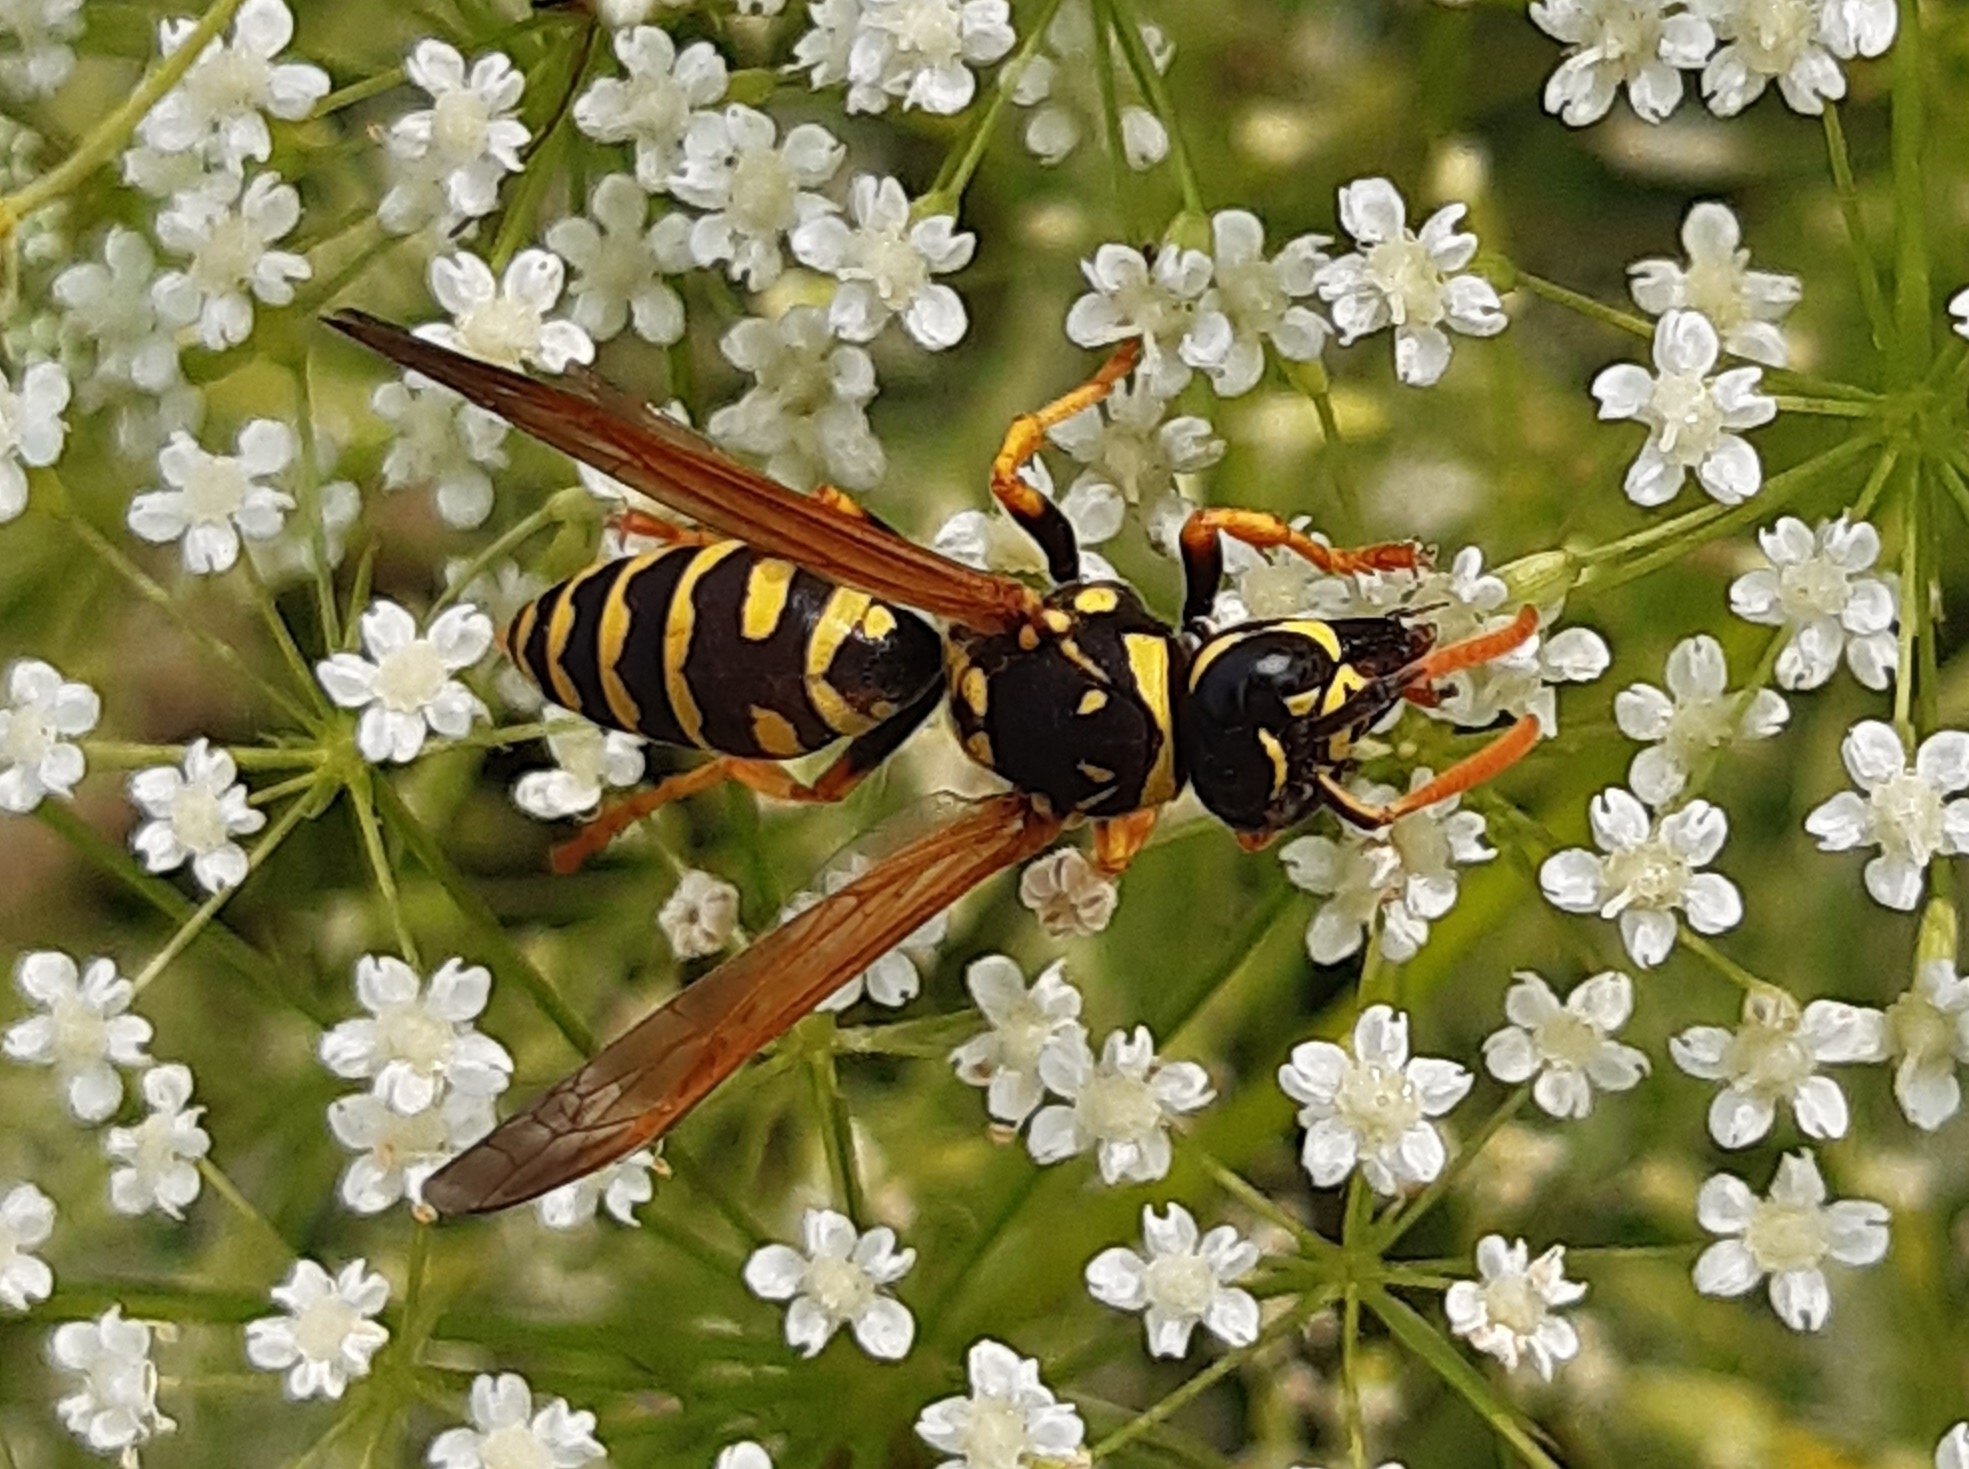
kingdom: Animalia
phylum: Arthropoda
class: Insecta
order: Hymenoptera
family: Eumenidae
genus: Polistes
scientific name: Polistes dominula
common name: Paper wasp
